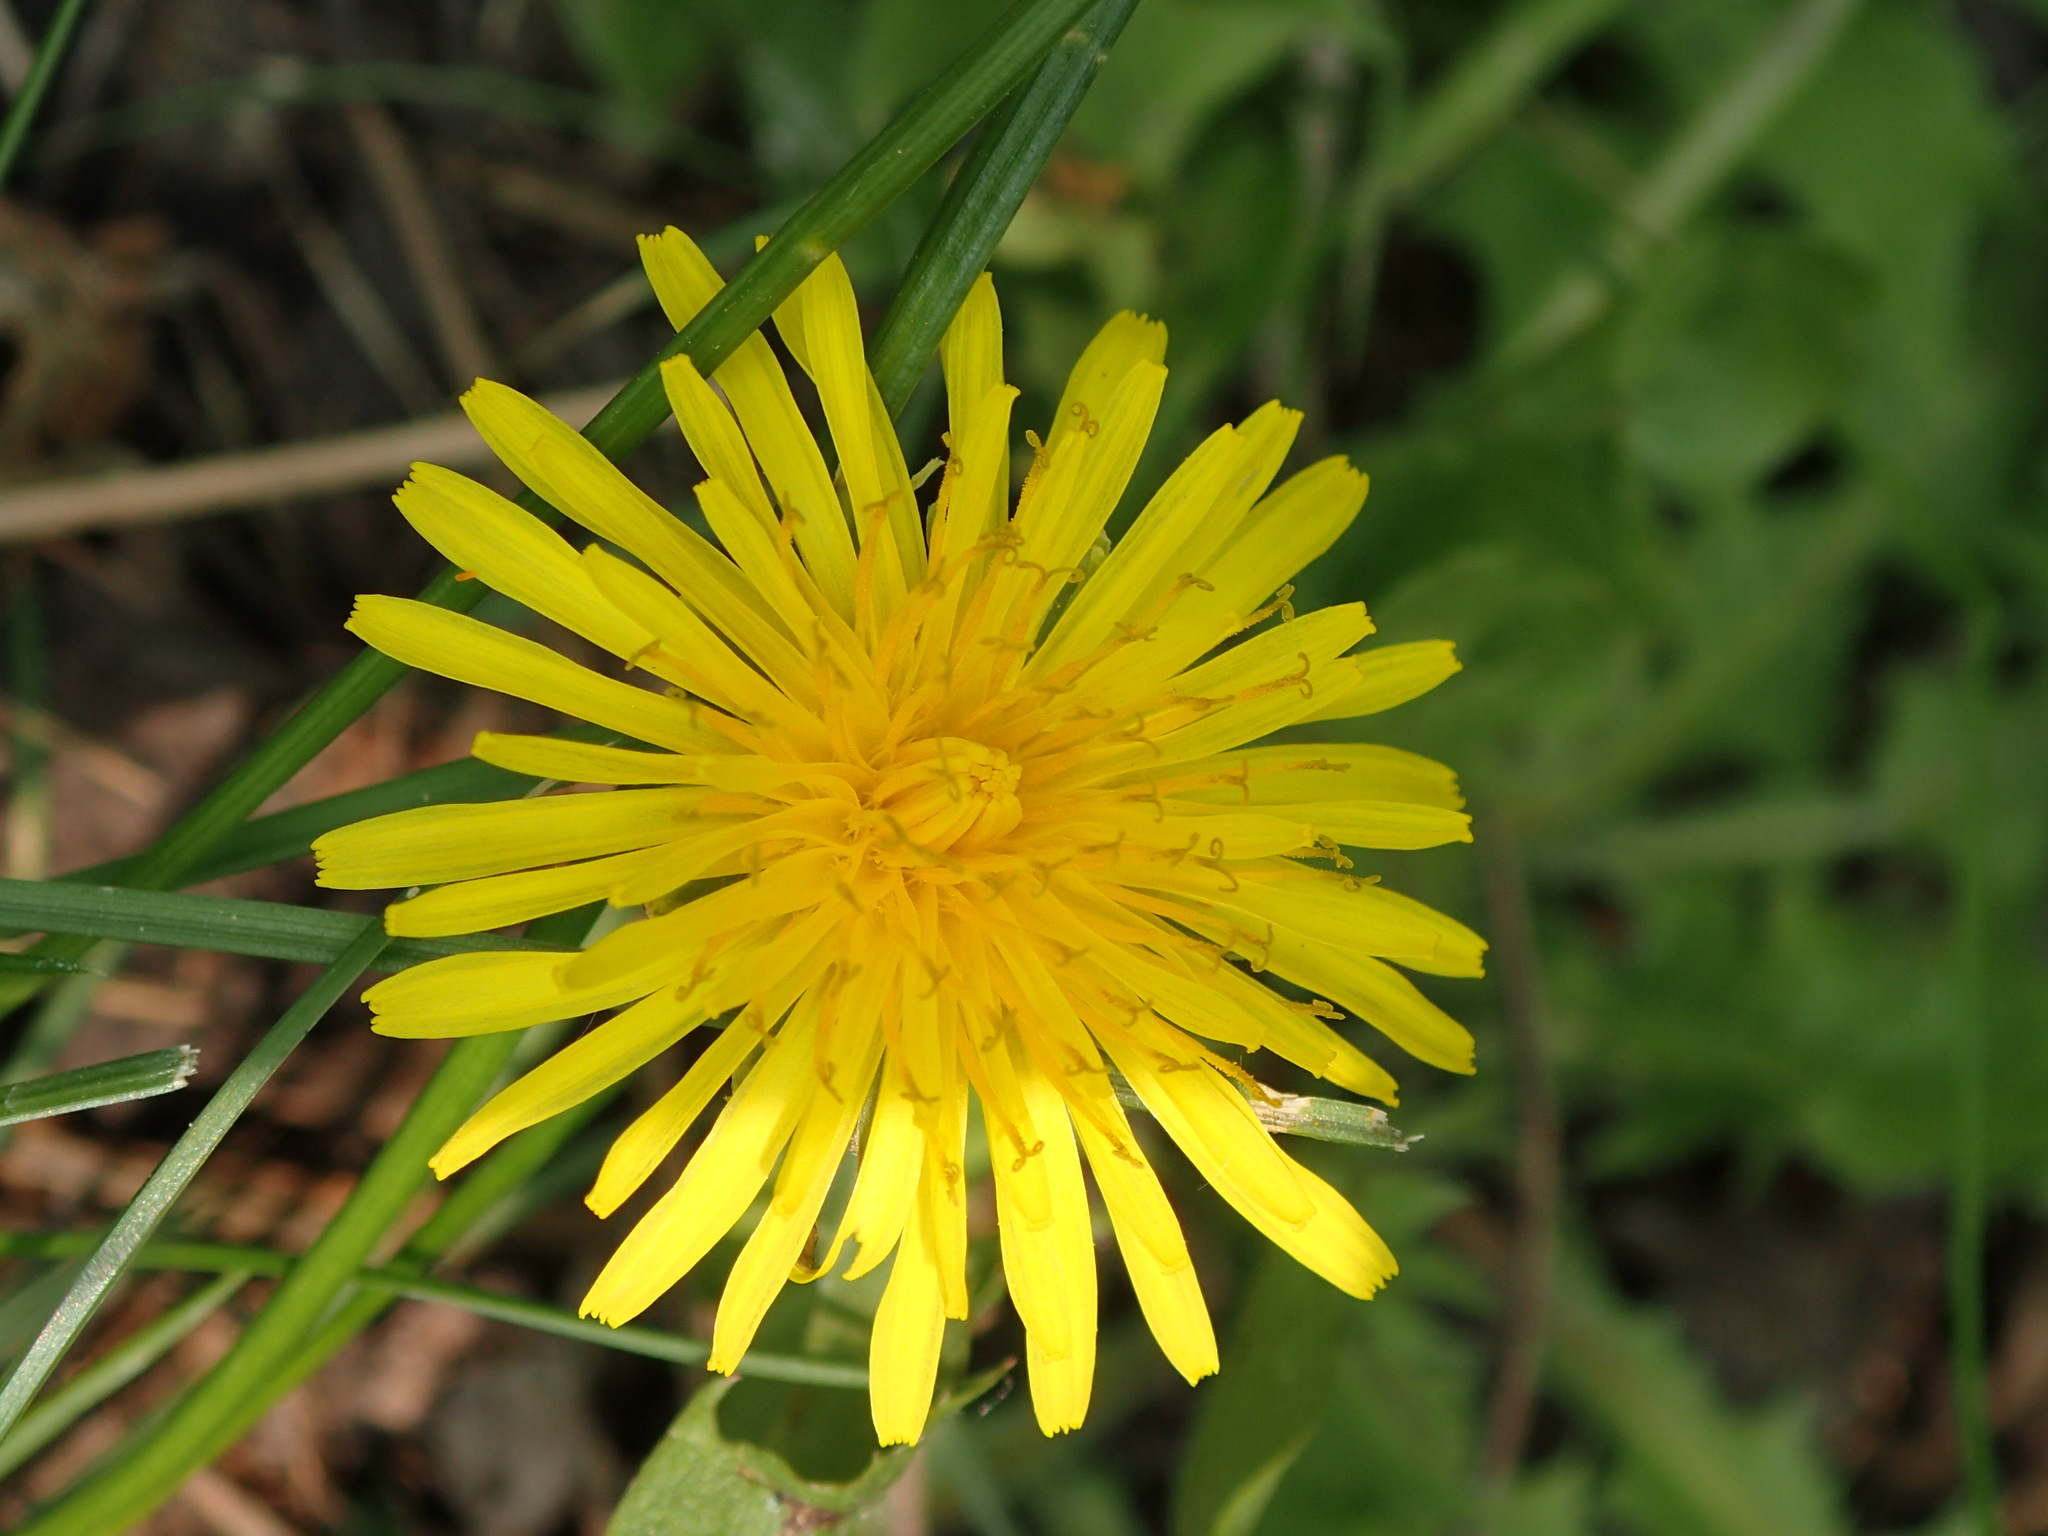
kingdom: Plantae
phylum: Tracheophyta
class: Magnoliopsida
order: Asterales
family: Asteraceae
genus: Taraxacum
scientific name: Taraxacum officinale
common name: Common dandelion
